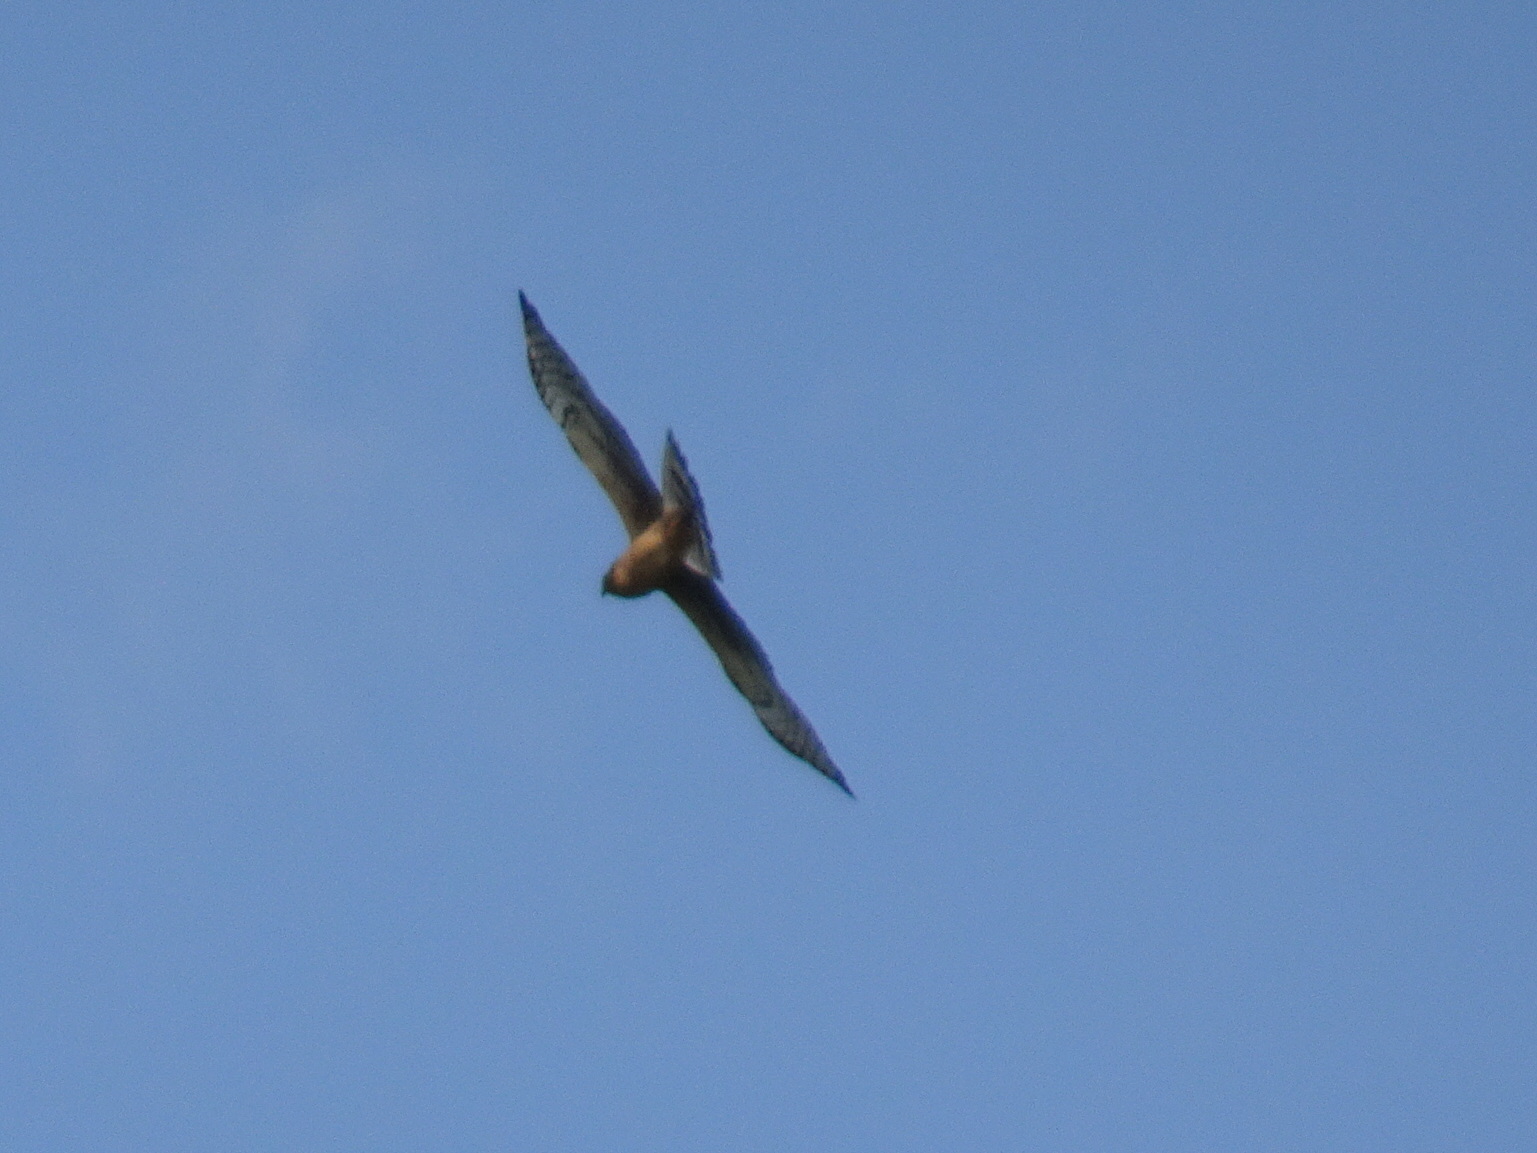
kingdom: Animalia
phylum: Chordata
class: Aves
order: Accipitriformes
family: Accipitridae
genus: Circus
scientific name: Circus cyaneus
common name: Hen harrier
